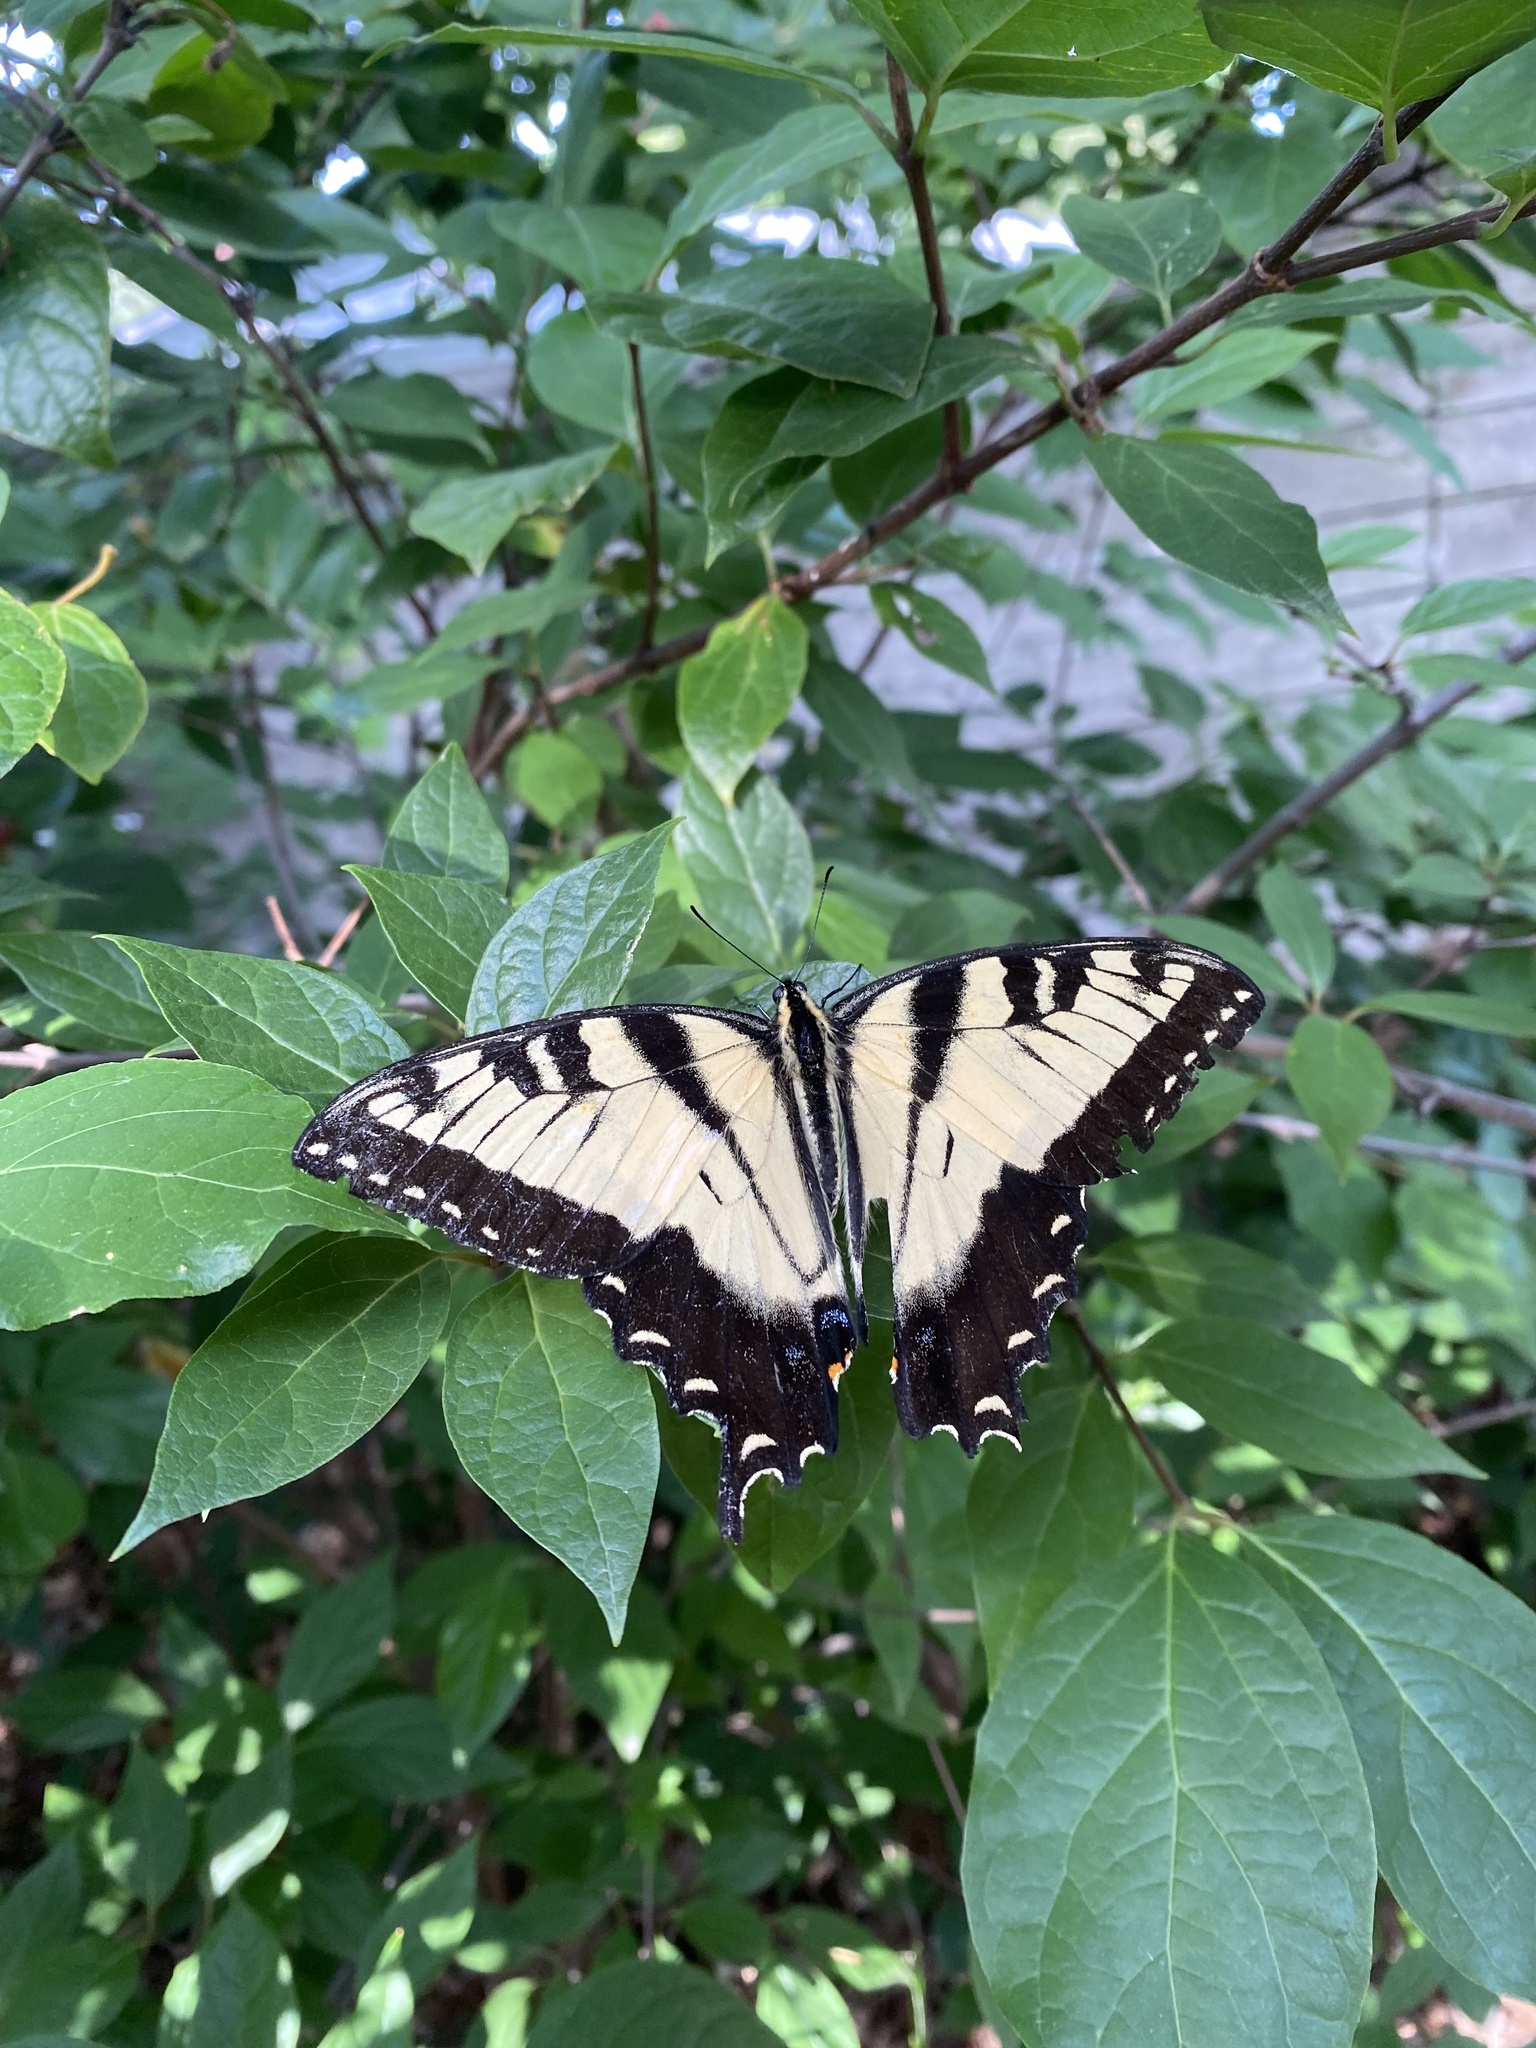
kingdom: Animalia
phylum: Arthropoda
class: Insecta
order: Lepidoptera
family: Papilionidae
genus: Papilio
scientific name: Papilio glaucus
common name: Tiger swallowtail
